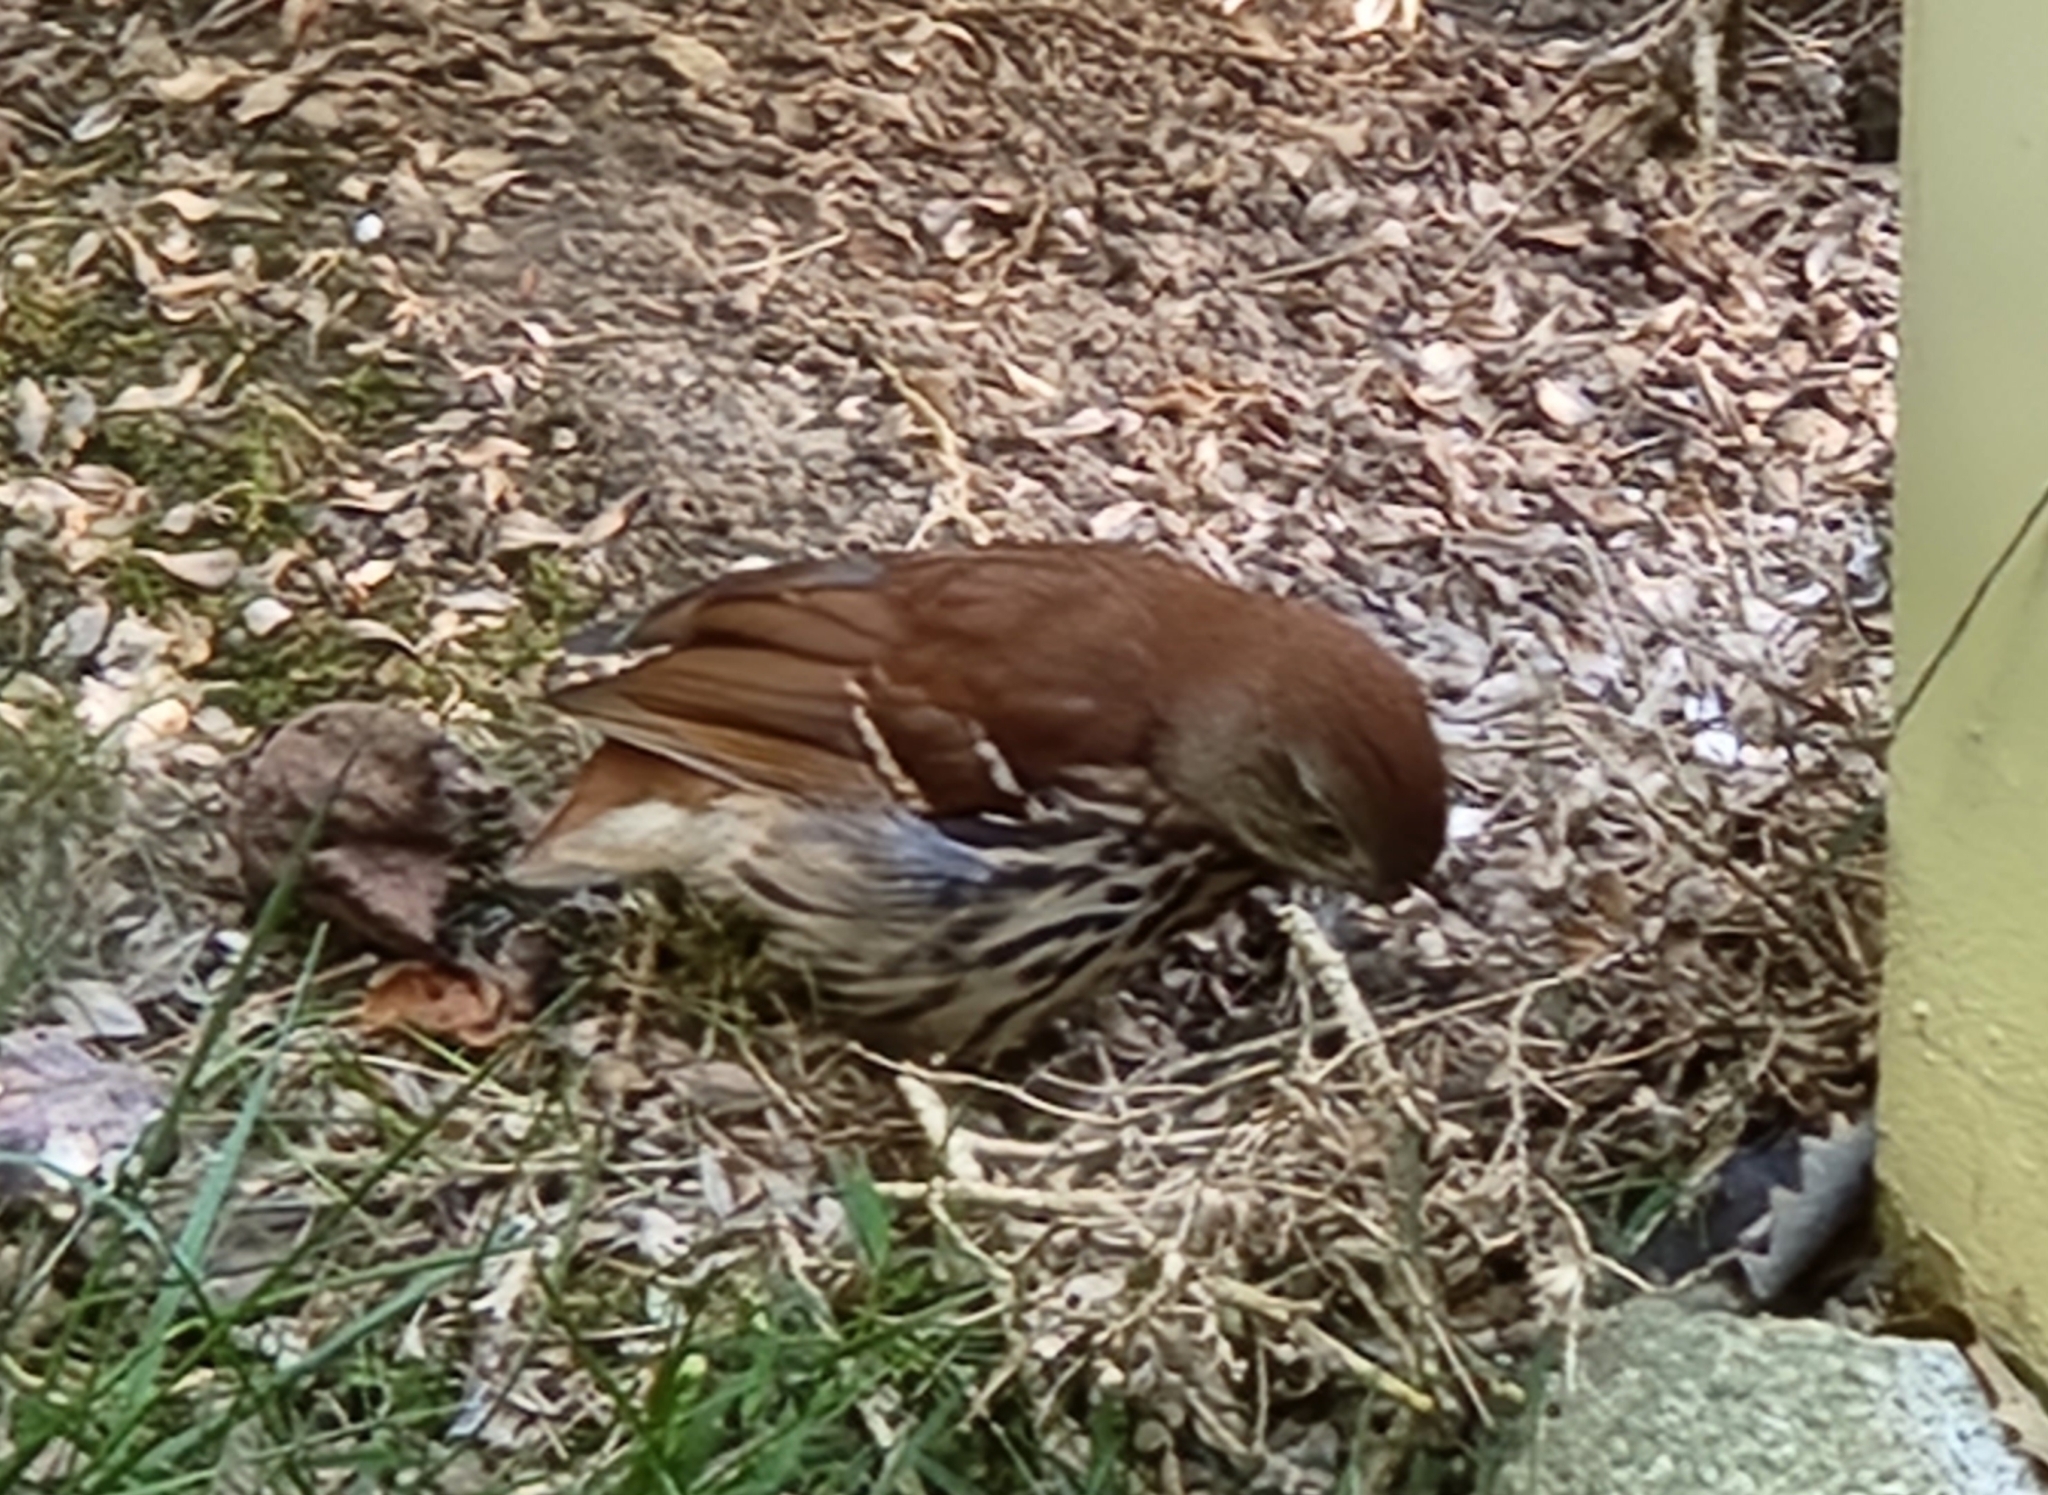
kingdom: Animalia
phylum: Chordata
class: Aves
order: Passeriformes
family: Mimidae
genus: Toxostoma
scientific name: Toxostoma rufum
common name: Brown thrasher
